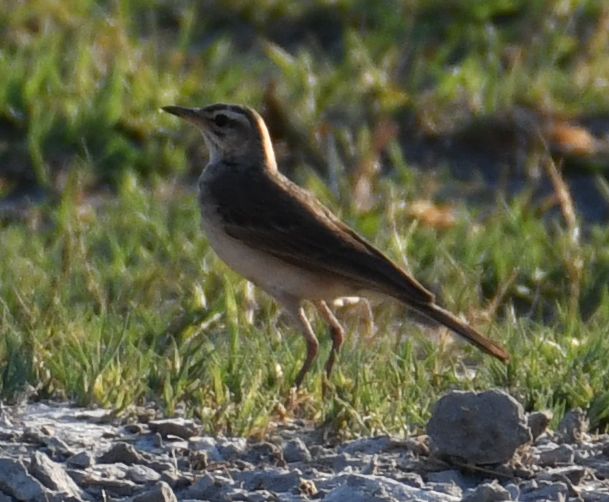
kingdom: Animalia
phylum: Chordata
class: Aves
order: Passeriformes
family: Motacillidae
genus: Anthus
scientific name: Anthus cinnamomeus
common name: African pipit
